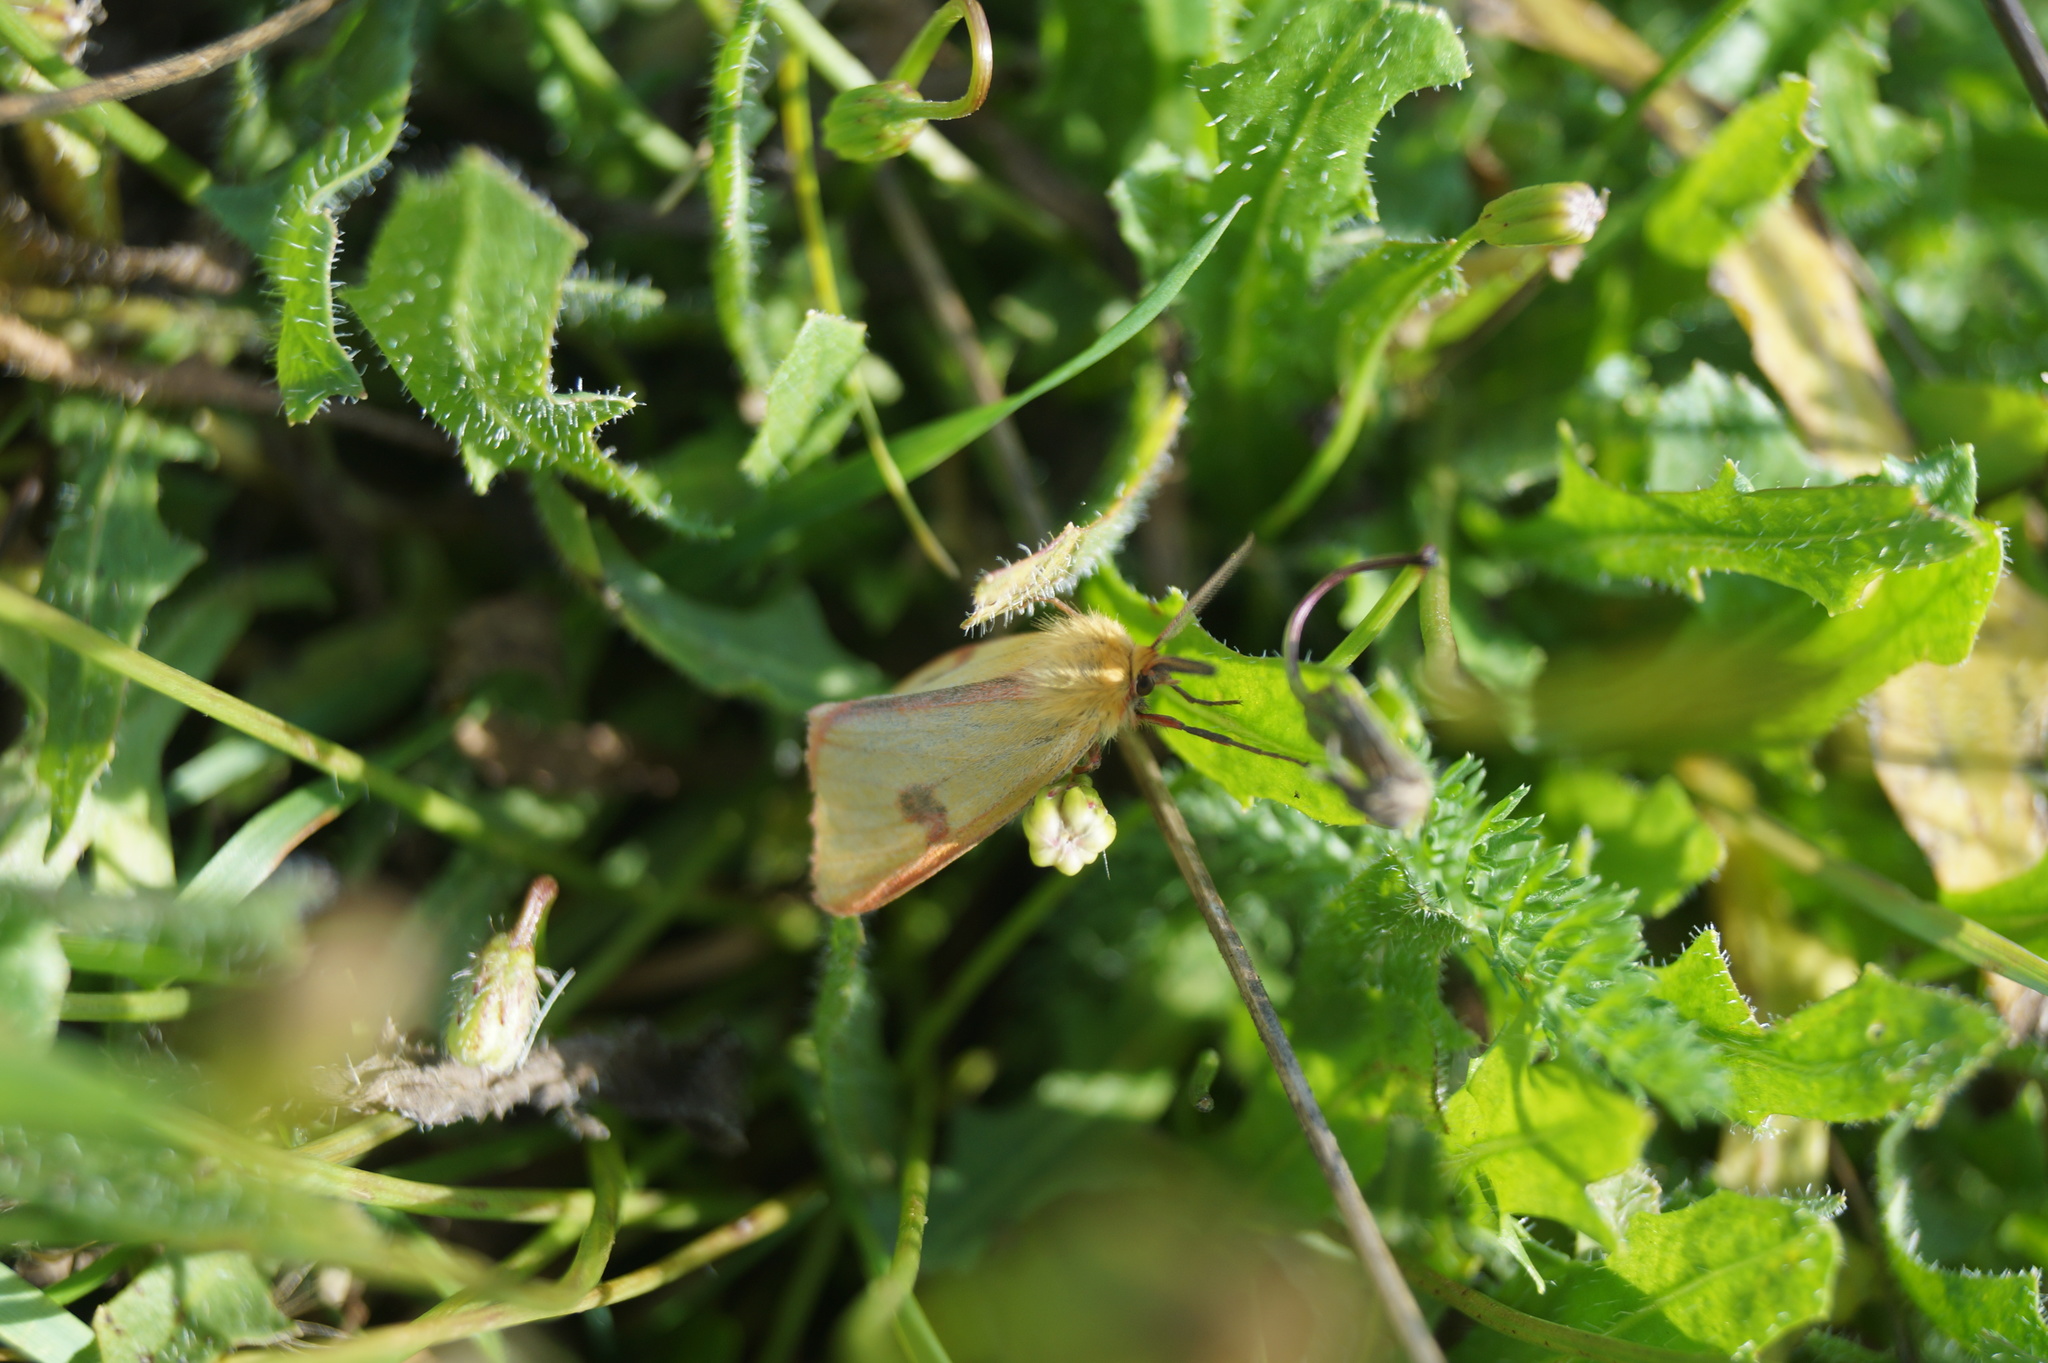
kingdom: Animalia
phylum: Arthropoda
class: Insecta
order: Lepidoptera
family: Erebidae
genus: Diacrisia
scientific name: Diacrisia sannio
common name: Clouded buff
